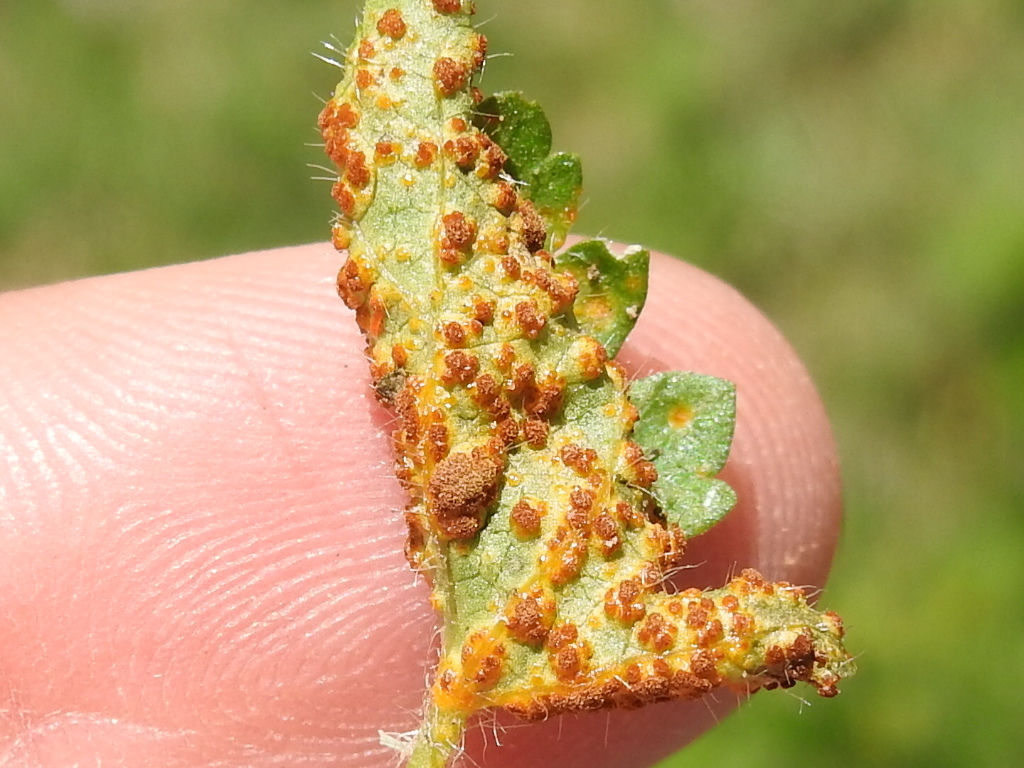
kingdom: Fungi
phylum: Basidiomycota
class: Pucciniomycetes
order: Pucciniales
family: Pucciniaceae
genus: Puccinia
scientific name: Puccinia modiolae
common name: Rust of bristlemallow
